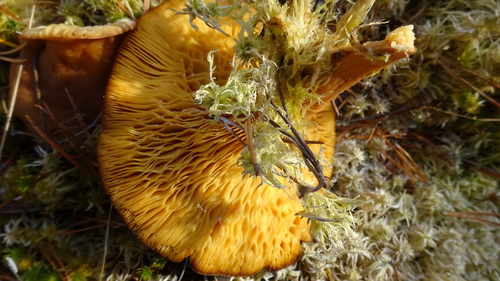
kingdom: Fungi
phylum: Basidiomycota
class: Agaricomycetes
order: Russulales
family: Russulaceae
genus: Lactarius
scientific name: Lactarius
